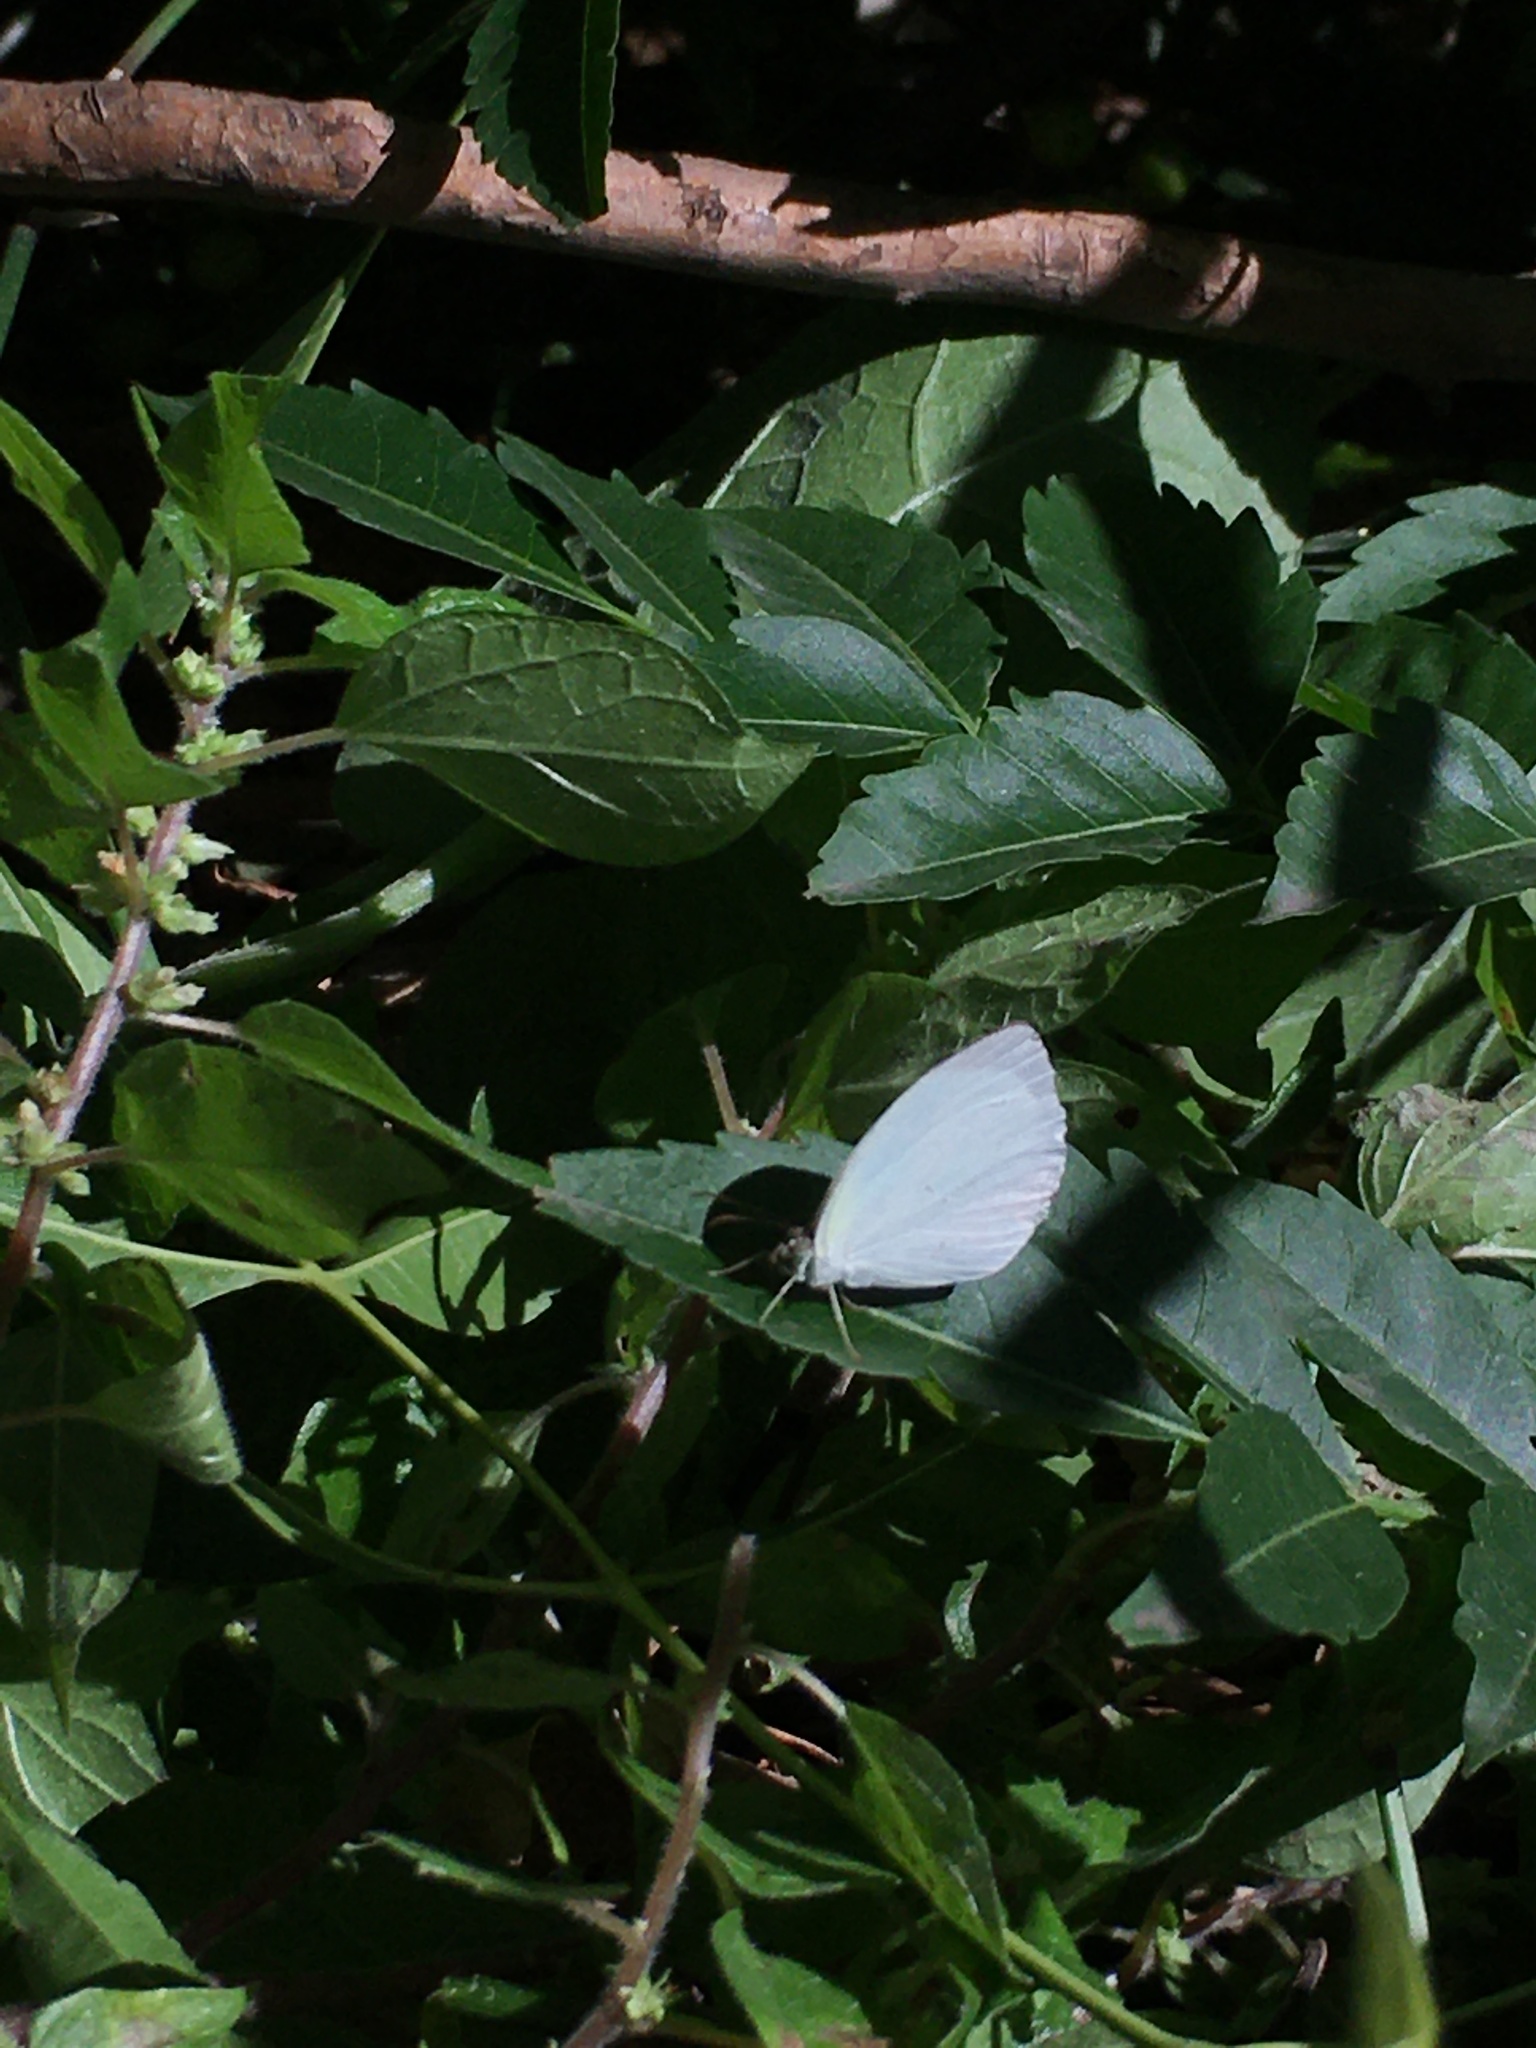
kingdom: Animalia
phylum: Arthropoda
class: Insecta
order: Lepidoptera
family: Pieridae
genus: Abaeis
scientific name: Abaeis albula
